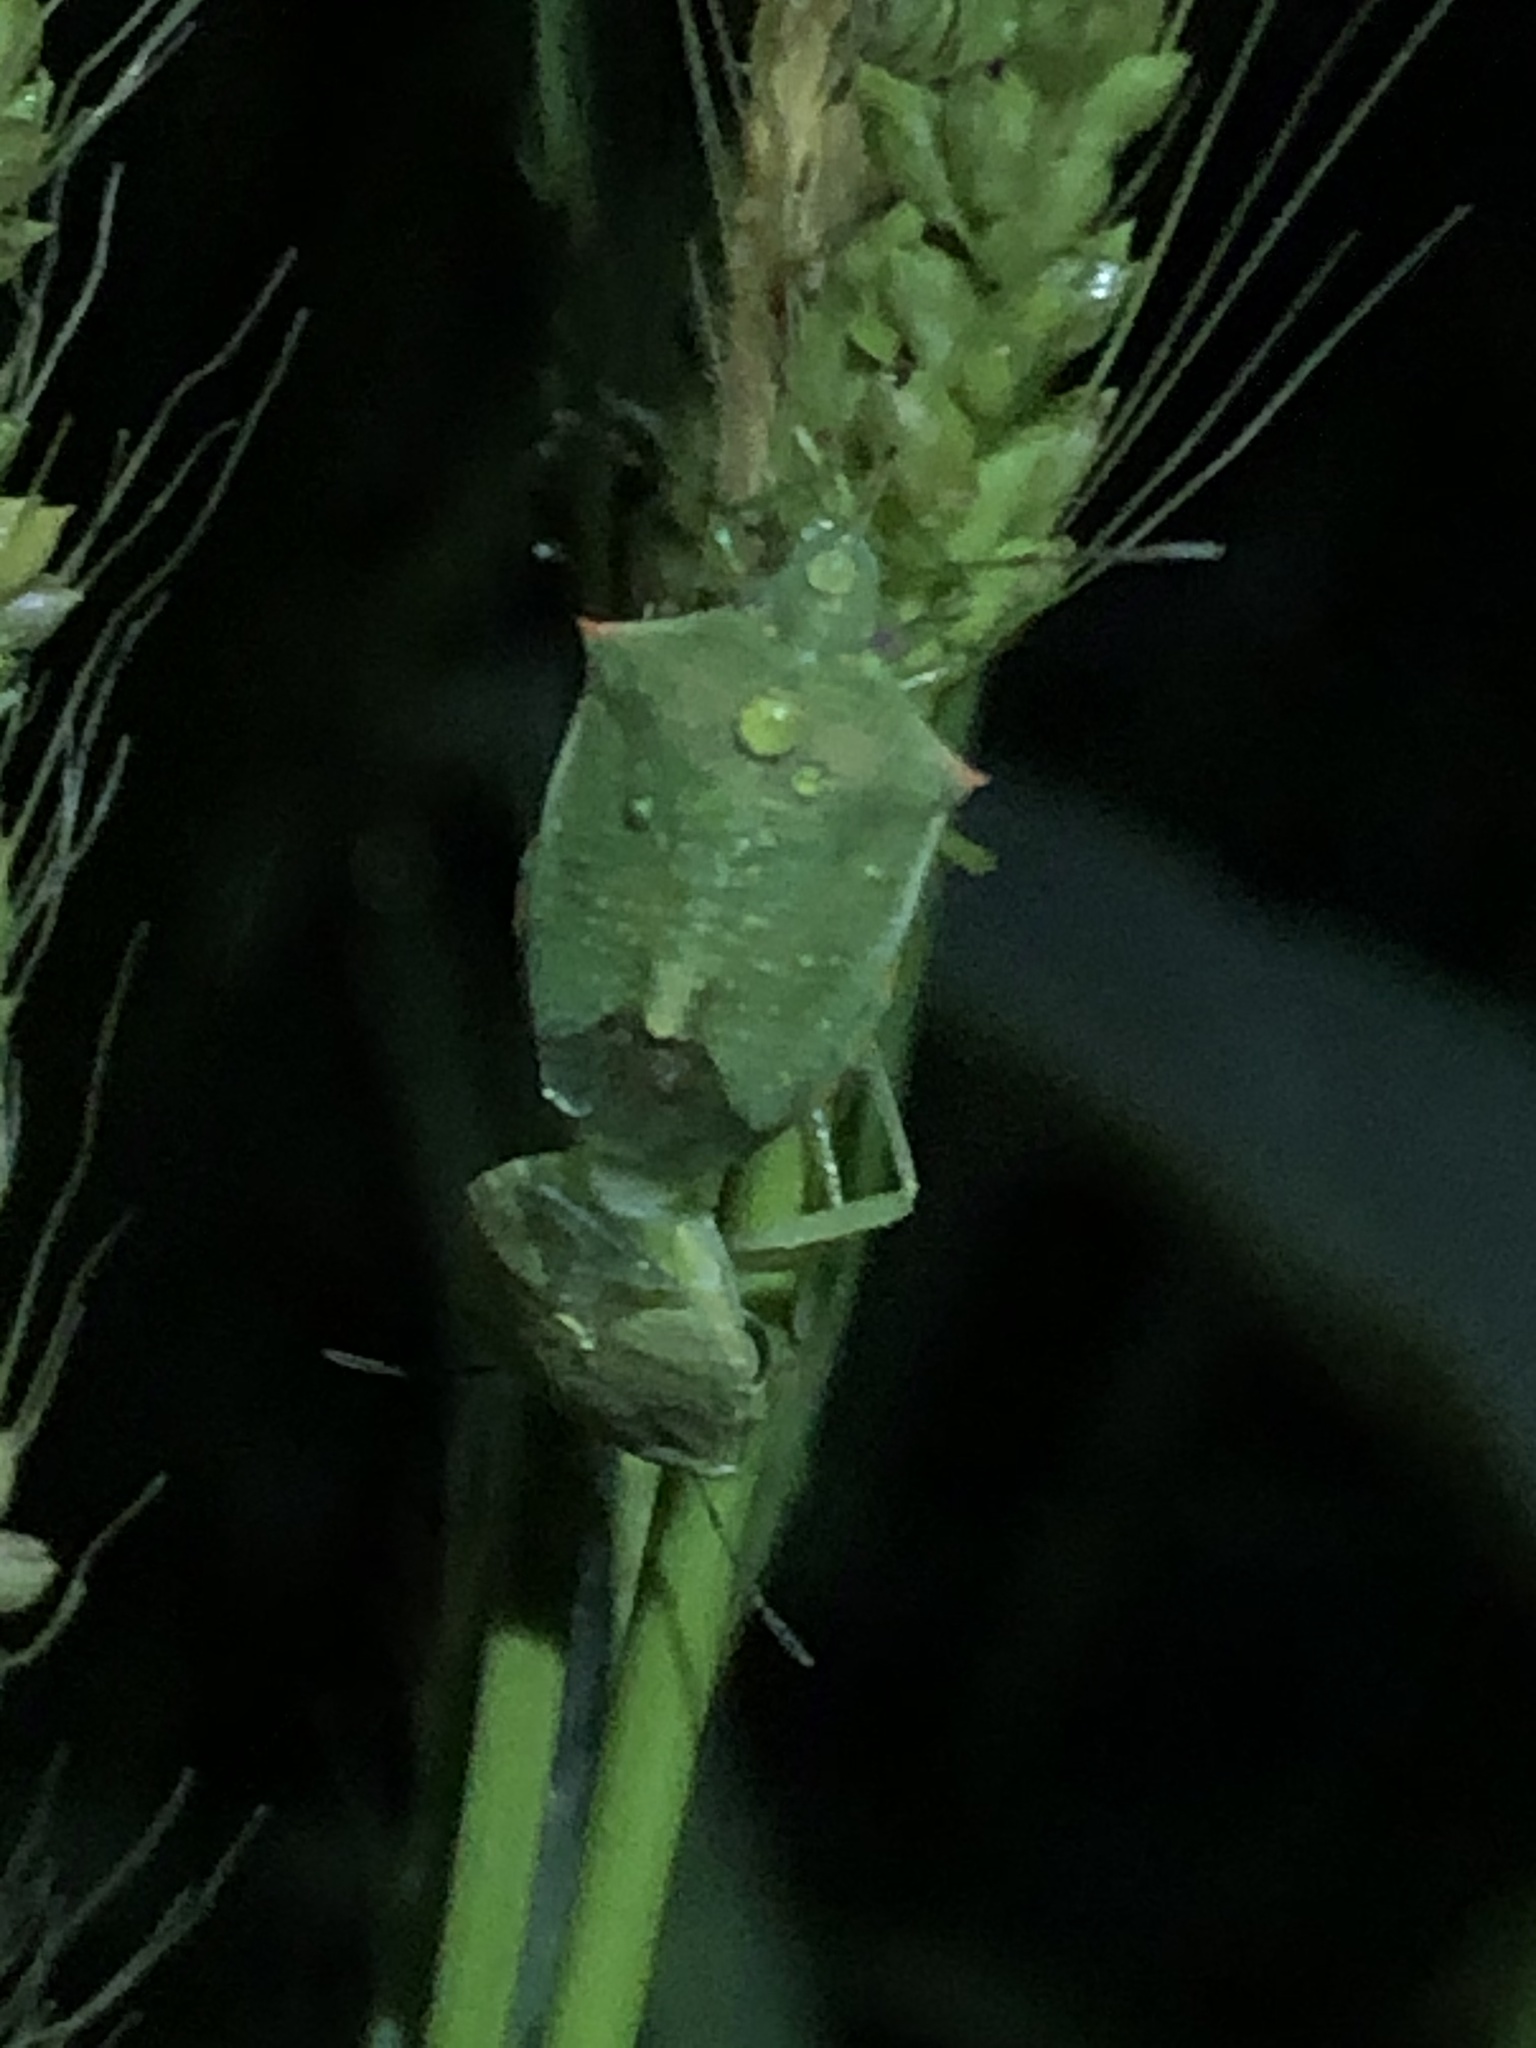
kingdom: Animalia
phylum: Arthropoda
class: Insecta
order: Hemiptera
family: Pentatomidae
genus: Thyanta
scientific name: Thyanta accerra
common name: Stink bug
